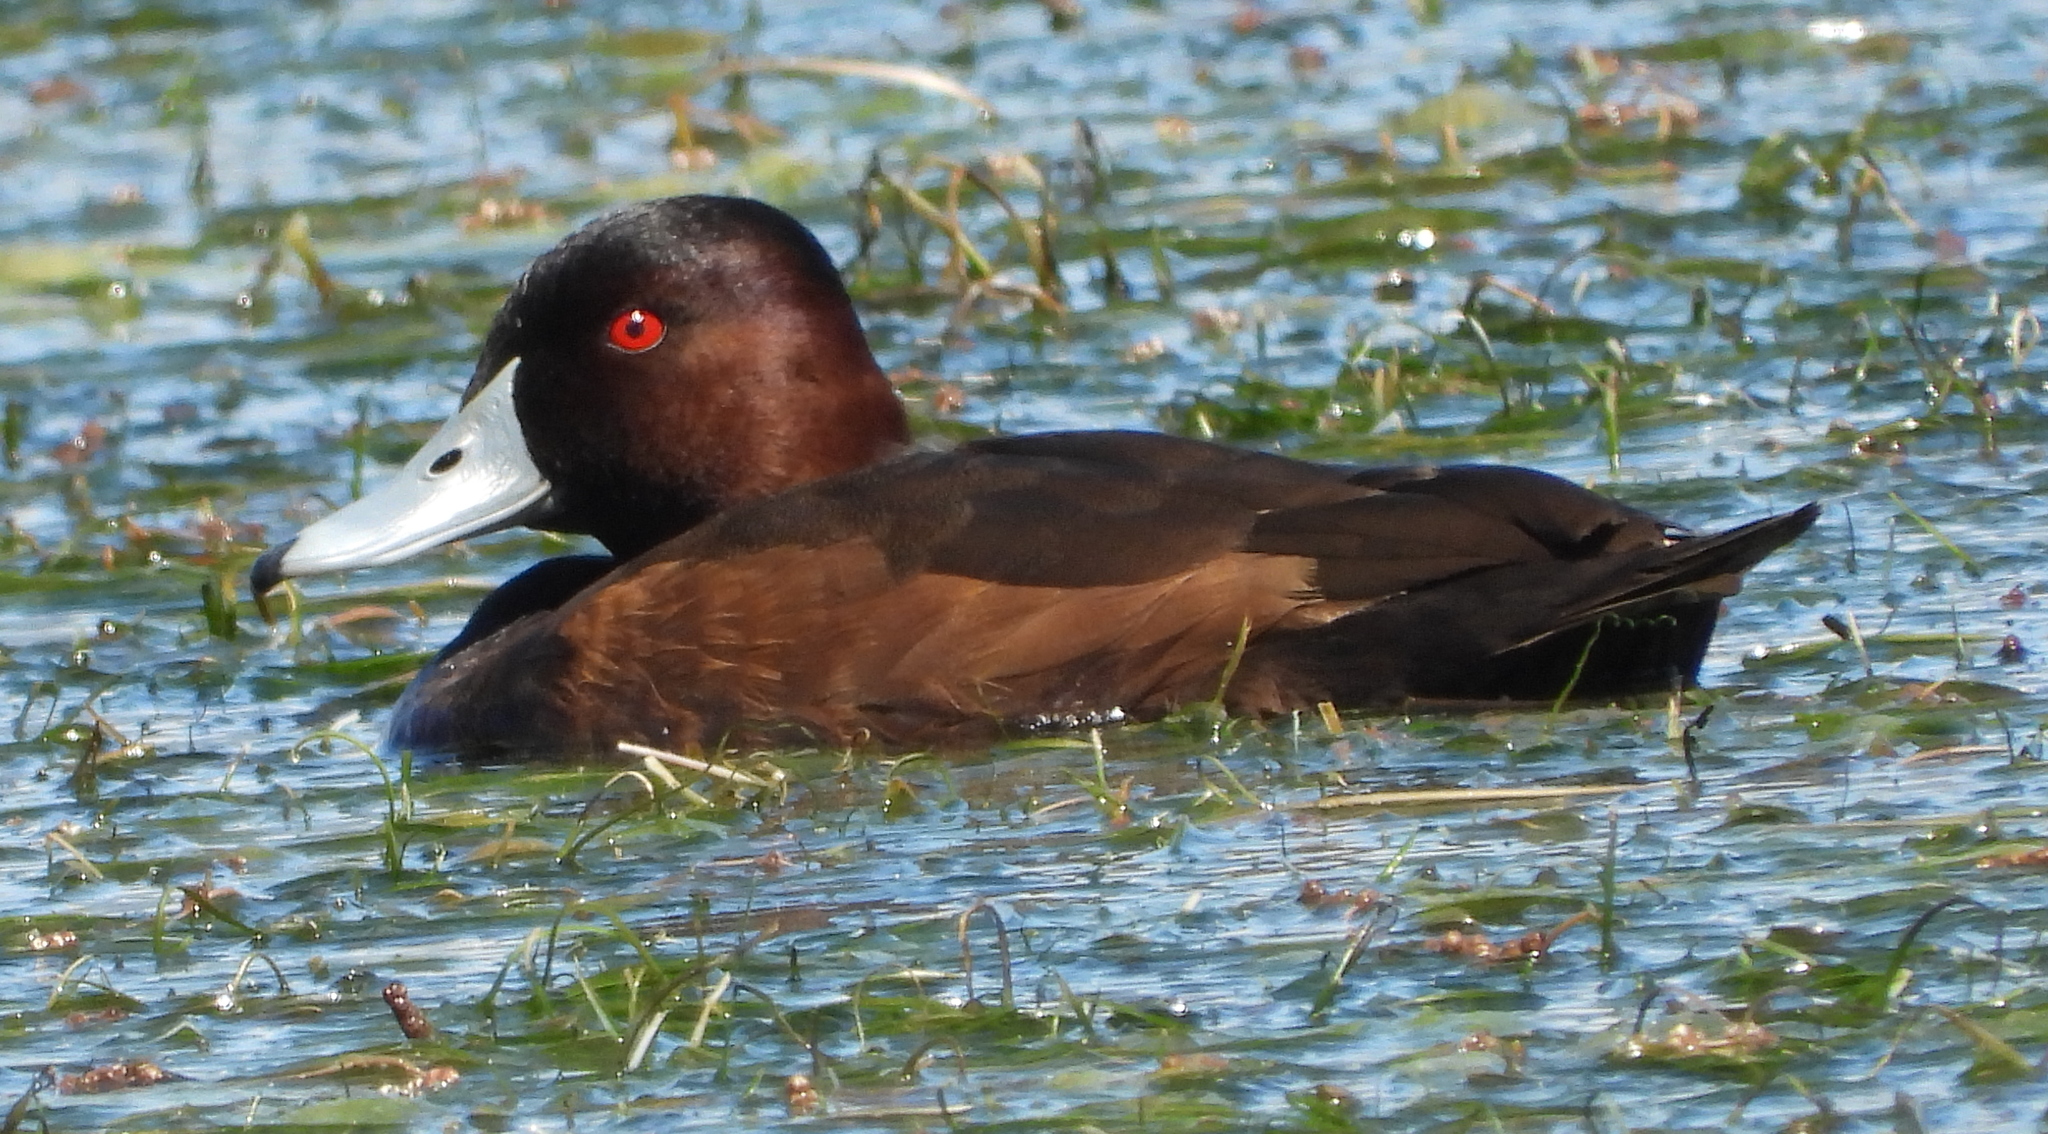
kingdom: Animalia
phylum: Chordata
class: Aves
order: Anseriformes
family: Anatidae
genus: Netta
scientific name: Netta erythrophthalma
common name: Southern pochard
